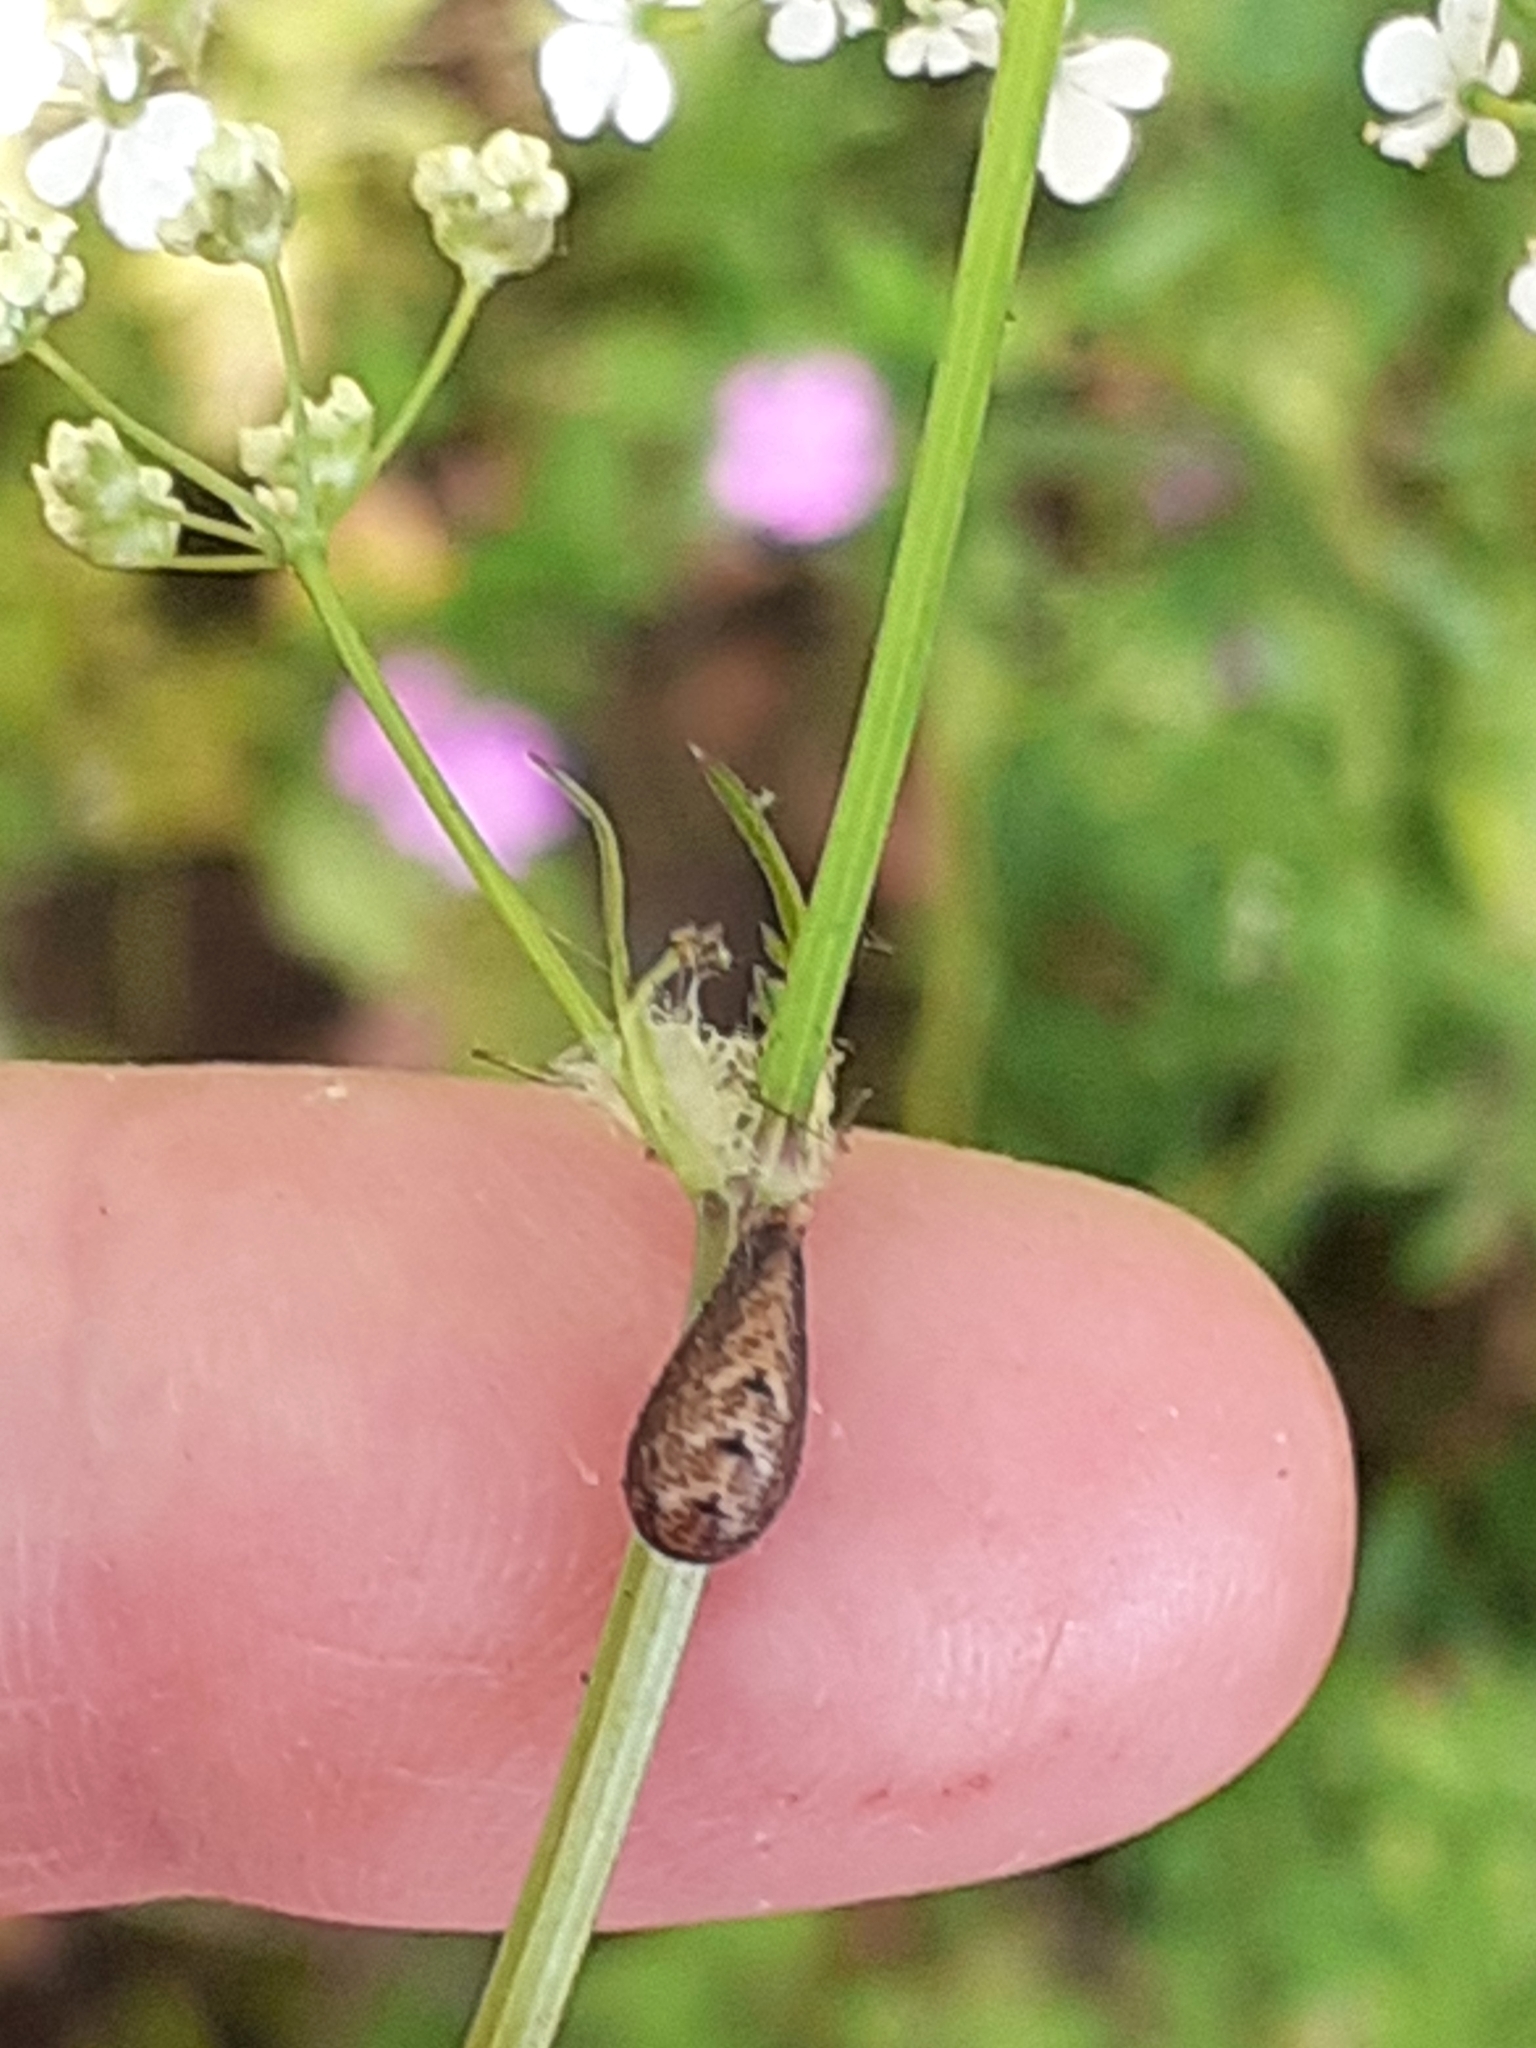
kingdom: Animalia
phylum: Arthropoda
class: Insecta
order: Diptera
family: Syrphidae
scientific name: Syrphidae
